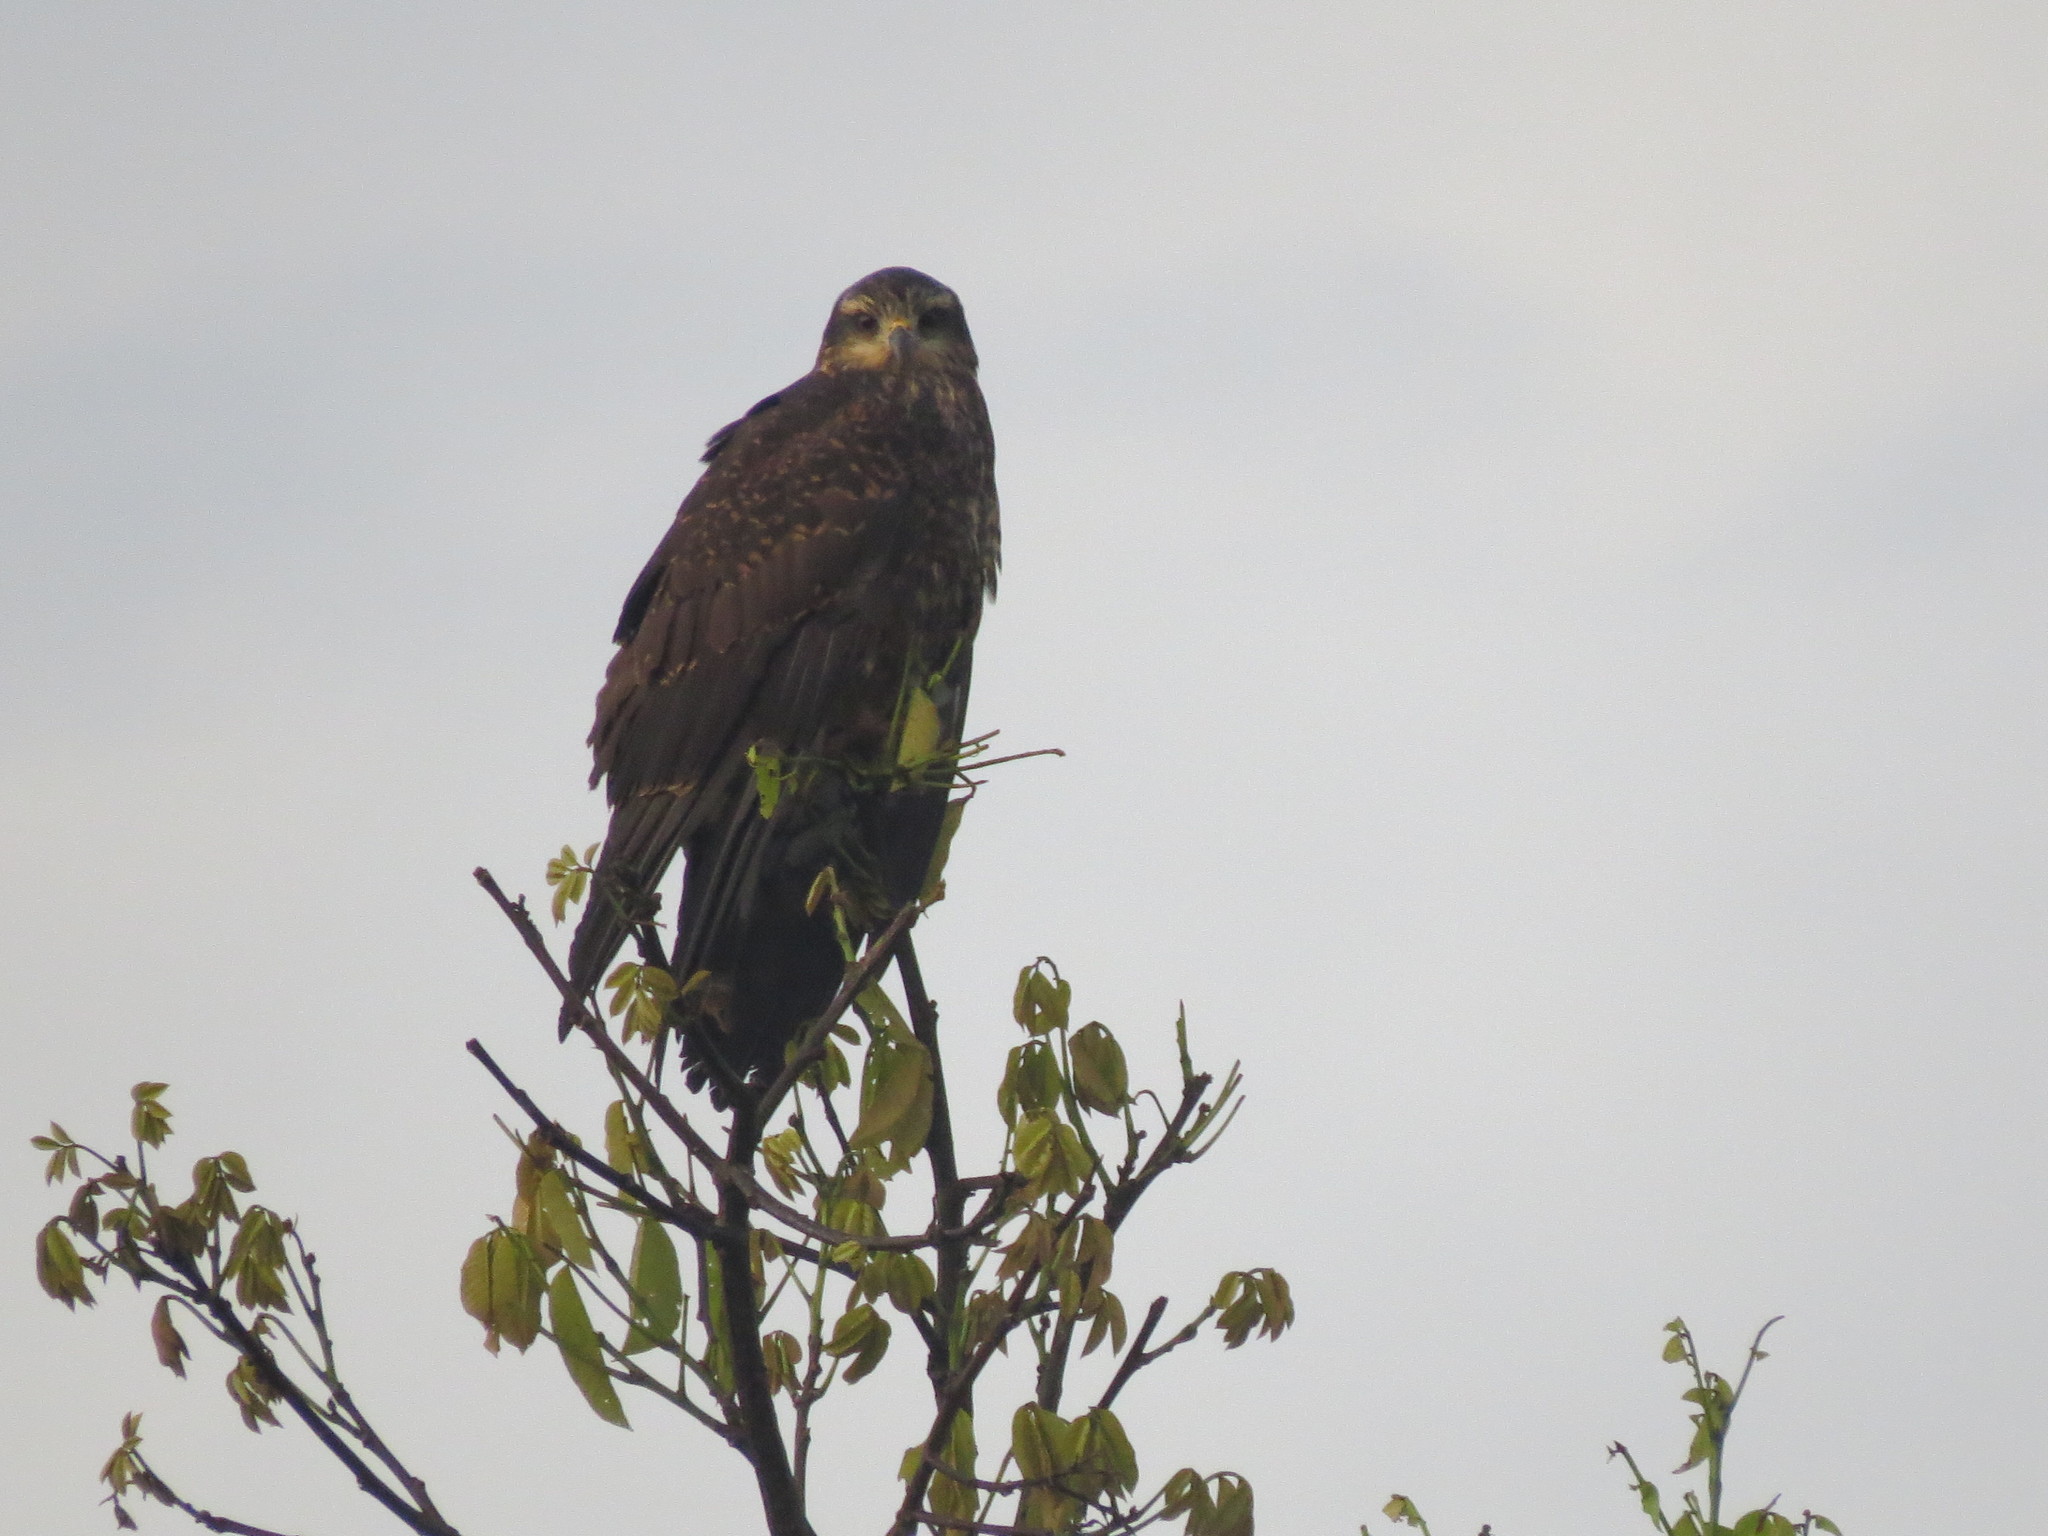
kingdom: Animalia
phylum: Chordata
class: Aves
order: Accipitriformes
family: Accipitridae
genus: Rostrhamus
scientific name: Rostrhamus sociabilis
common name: Snail kite
